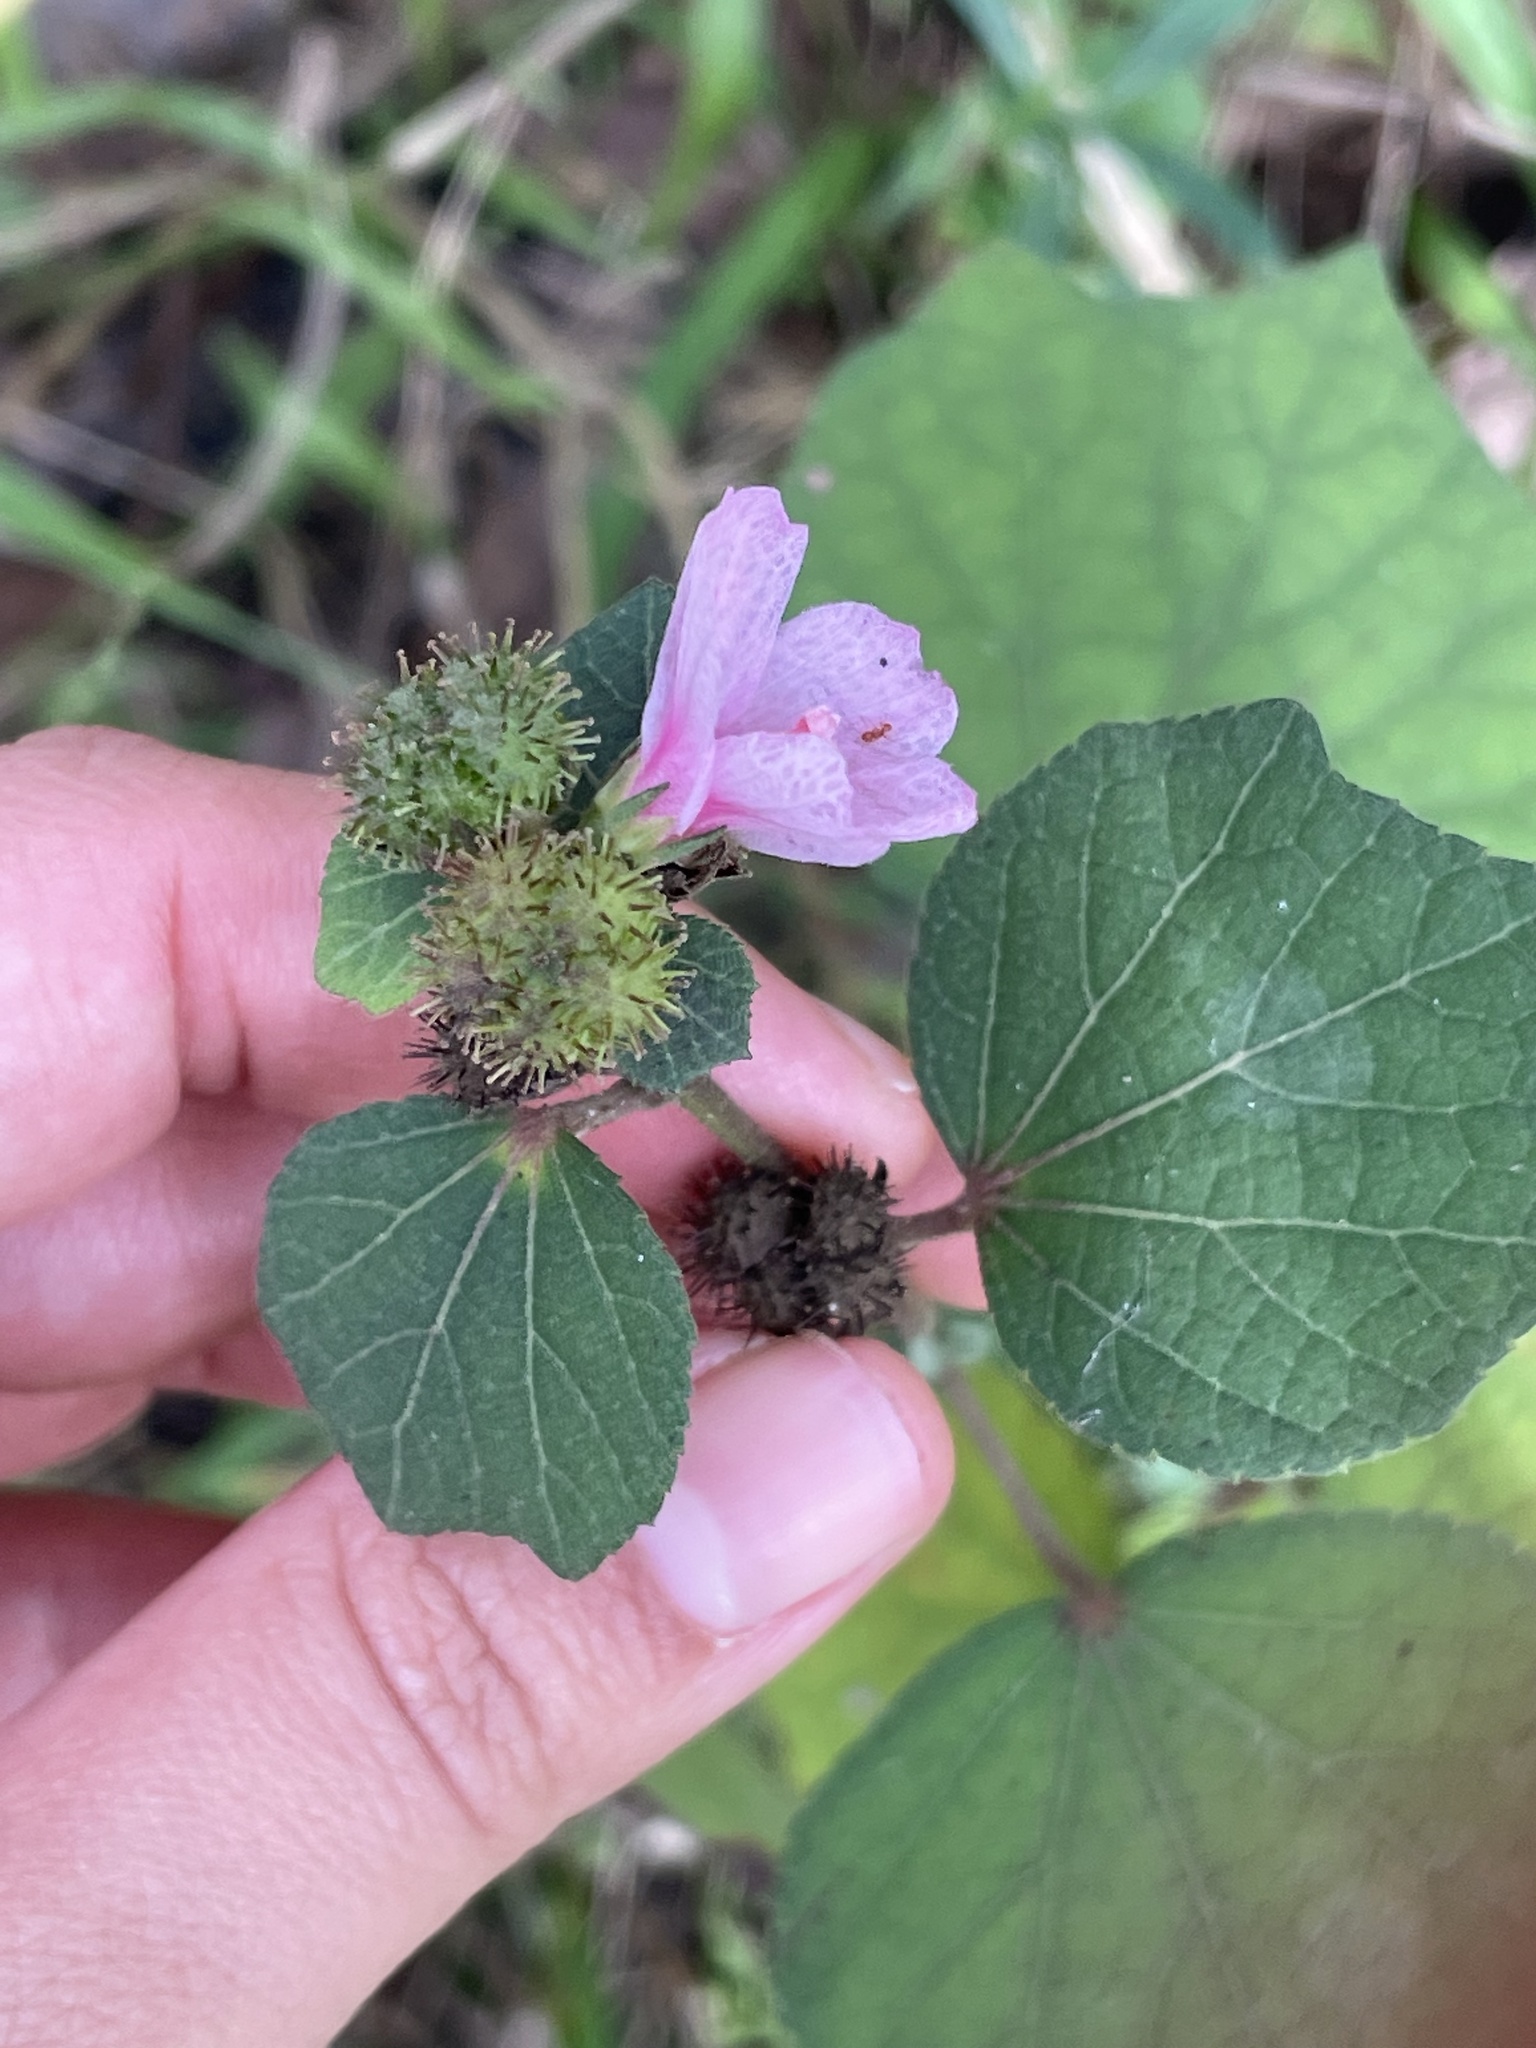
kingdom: Plantae
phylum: Tracheophyta
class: Magnoliopsida
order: Malvales
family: Malvaceae
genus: Urena
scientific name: Urena lobata
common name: Caesarweed
